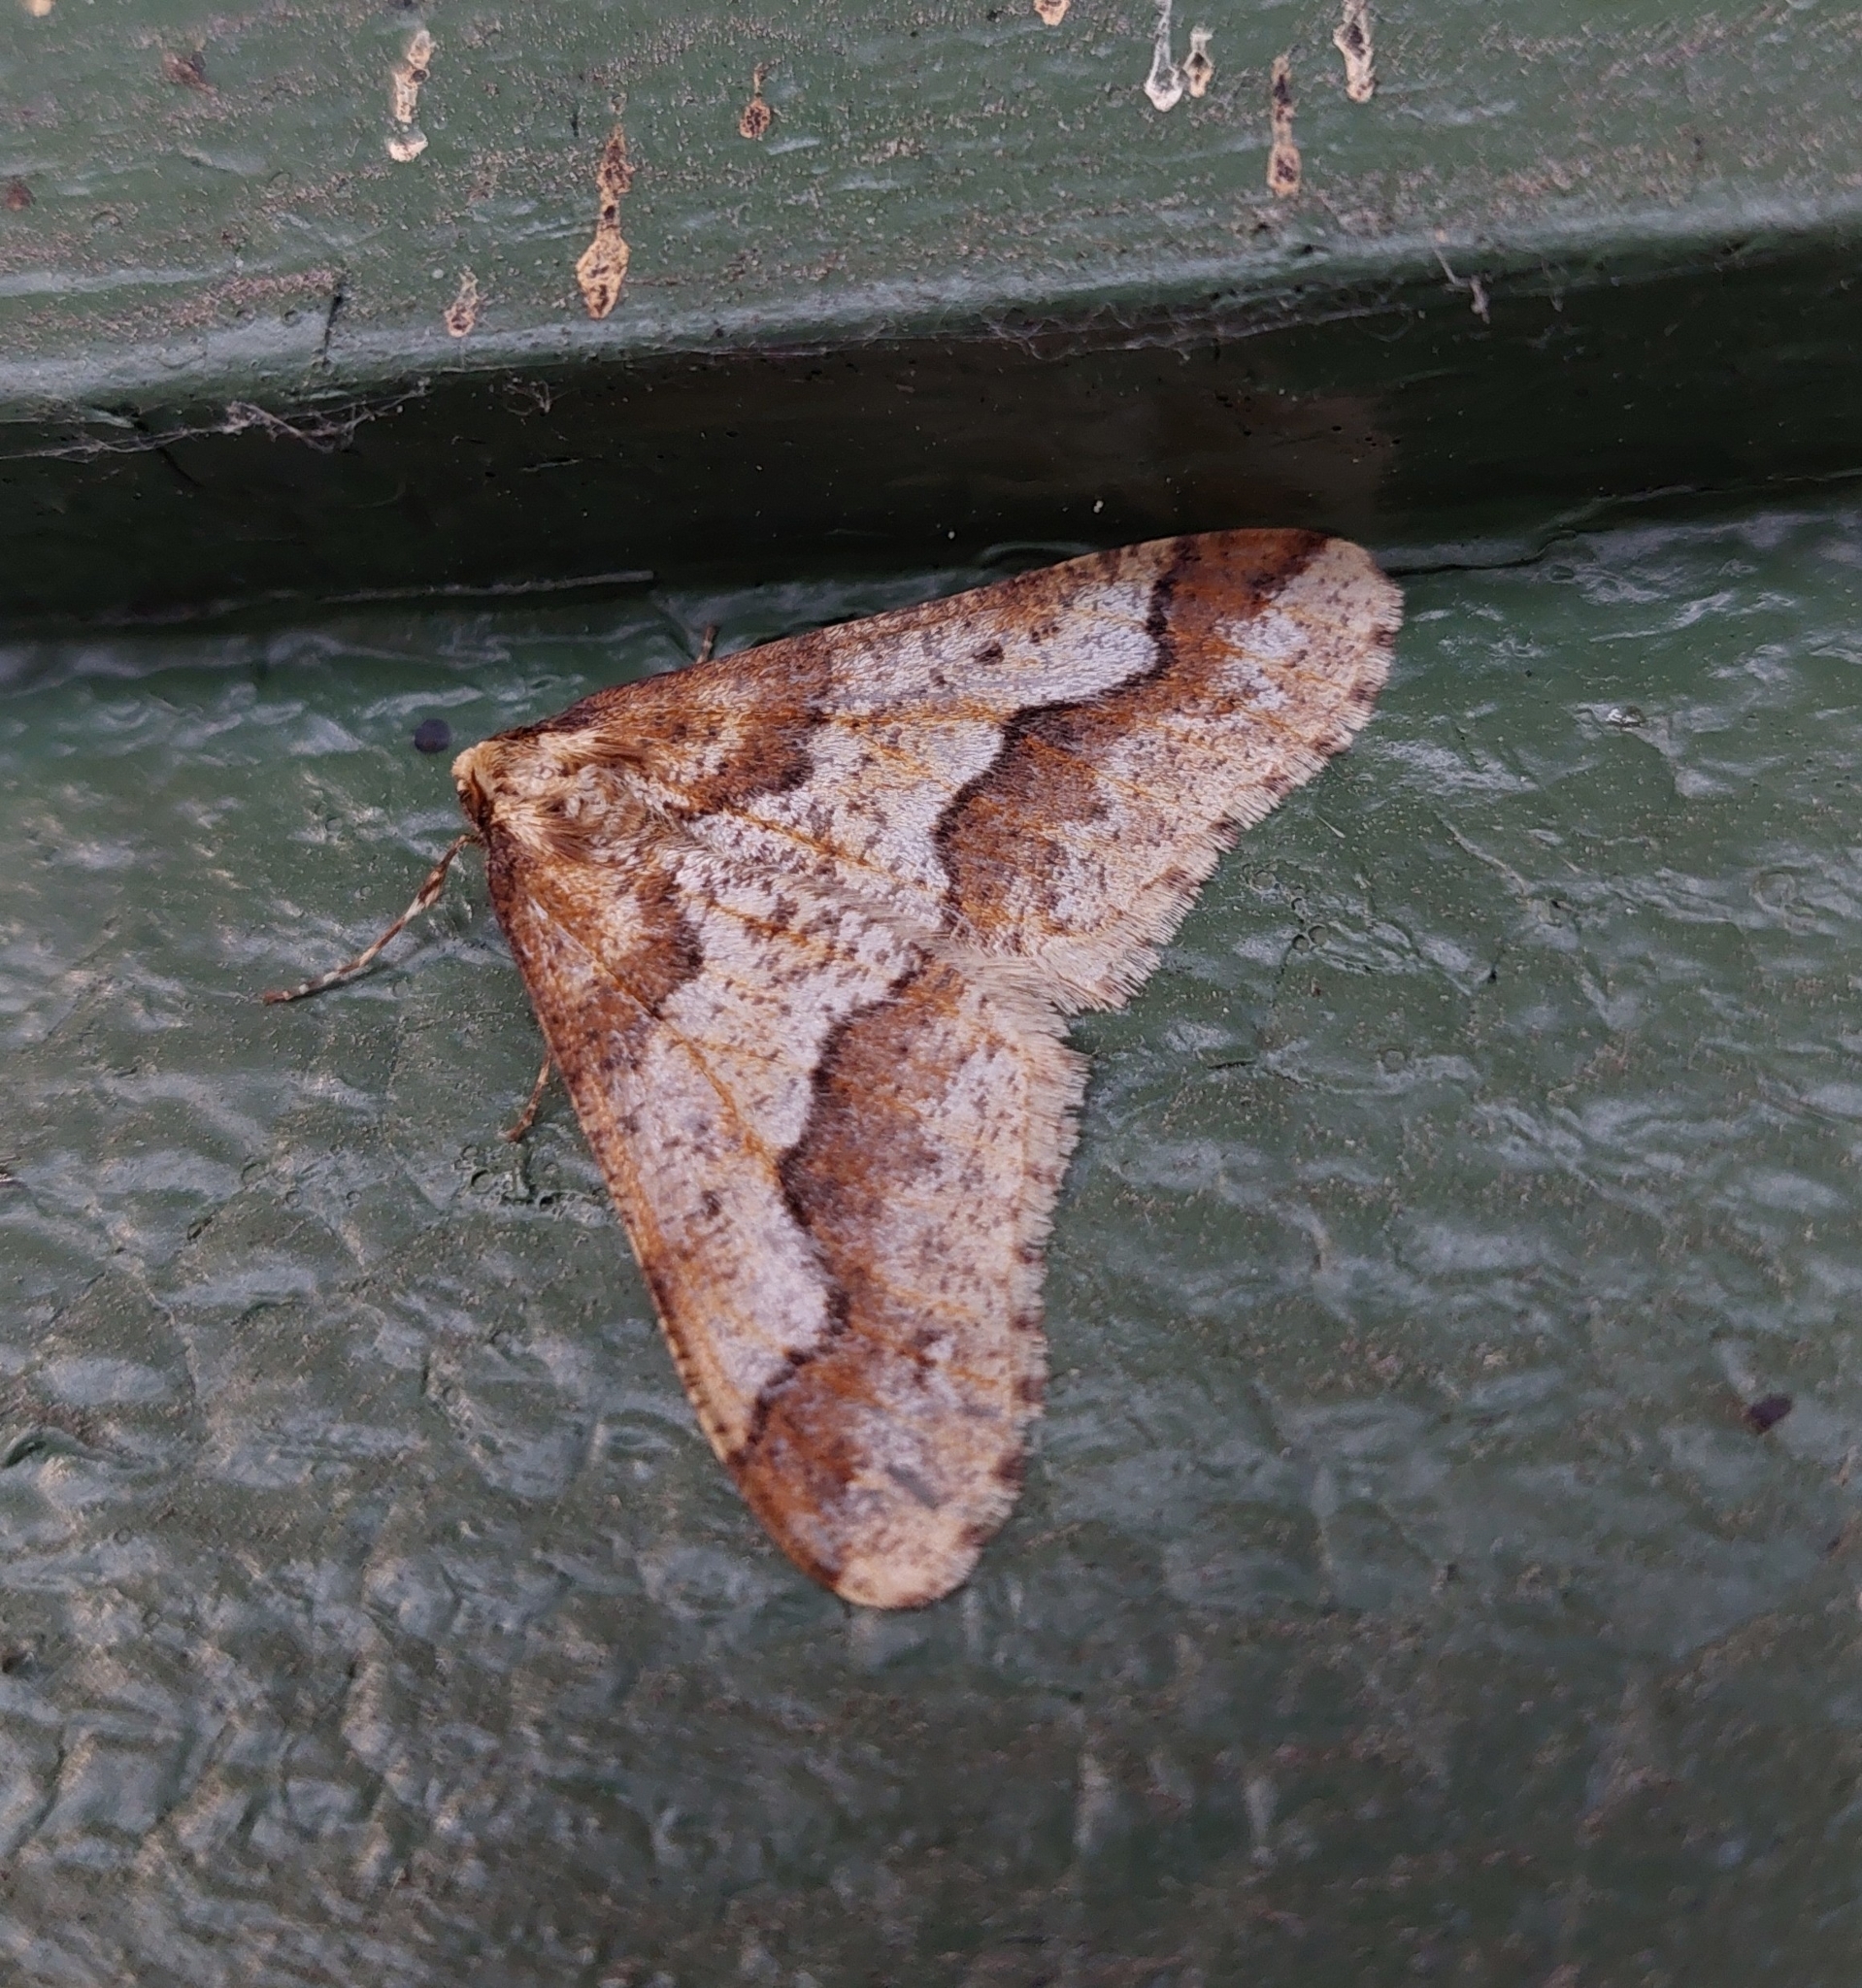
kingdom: Animalia
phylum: Arthropoda
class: Insecta
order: Lepidoptera
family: Geometridae
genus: Erannis
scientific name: Erannis defoliaria
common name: Mottled umber
